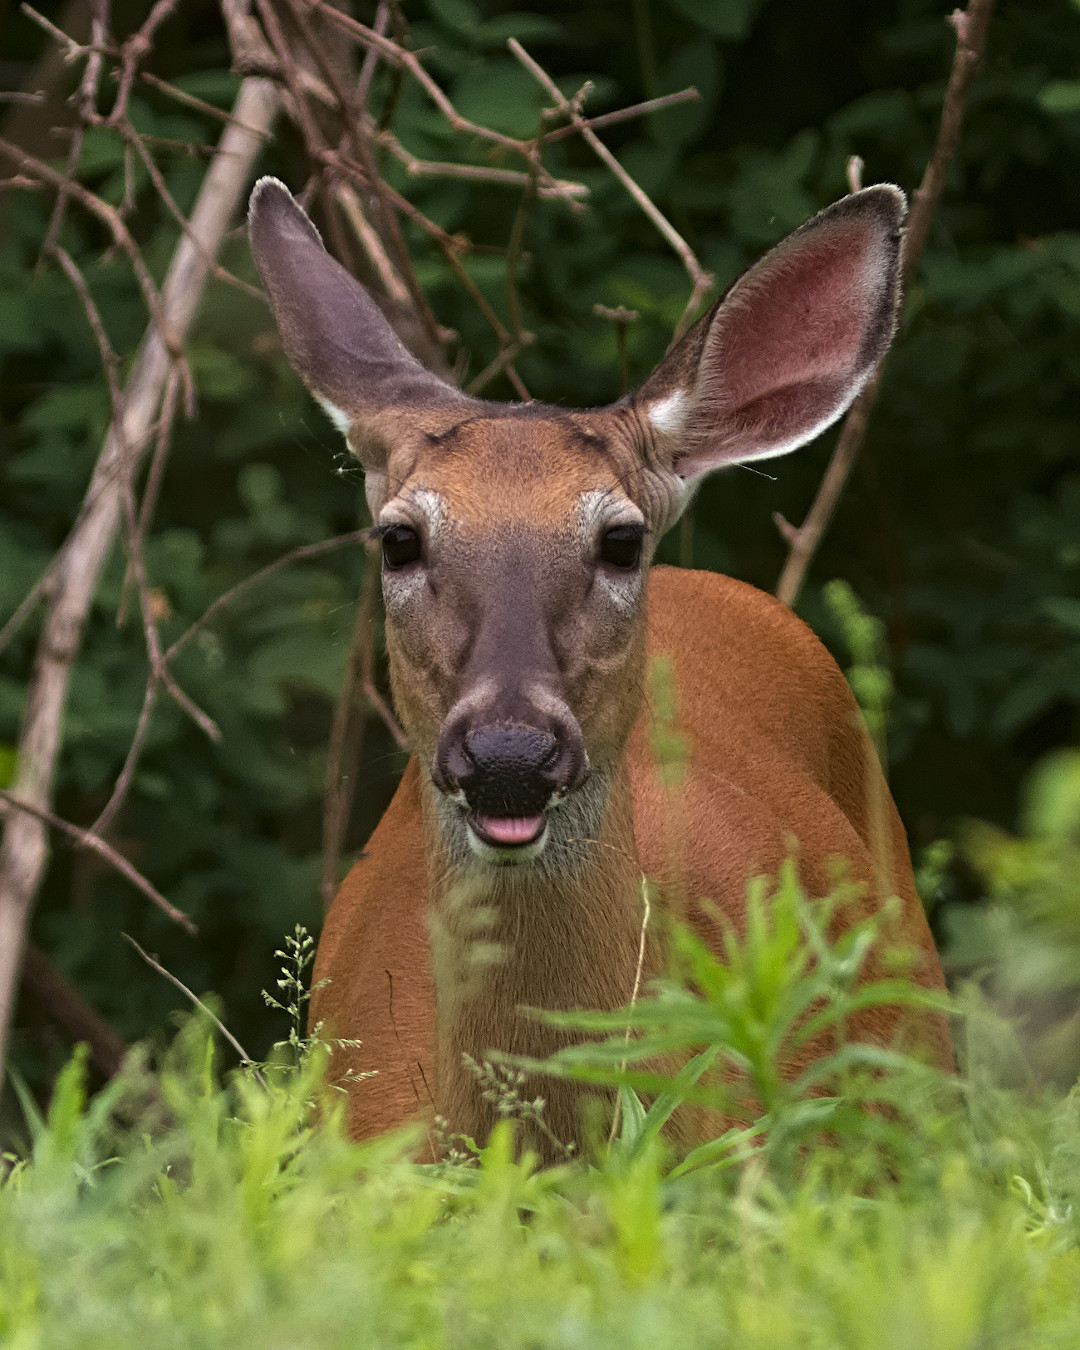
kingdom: Animalia
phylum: Chordata
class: Mammalia
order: Artiodactyla
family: Cervidae
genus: Odocoileus
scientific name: Odocoileus virginianus
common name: White-tailed deer
